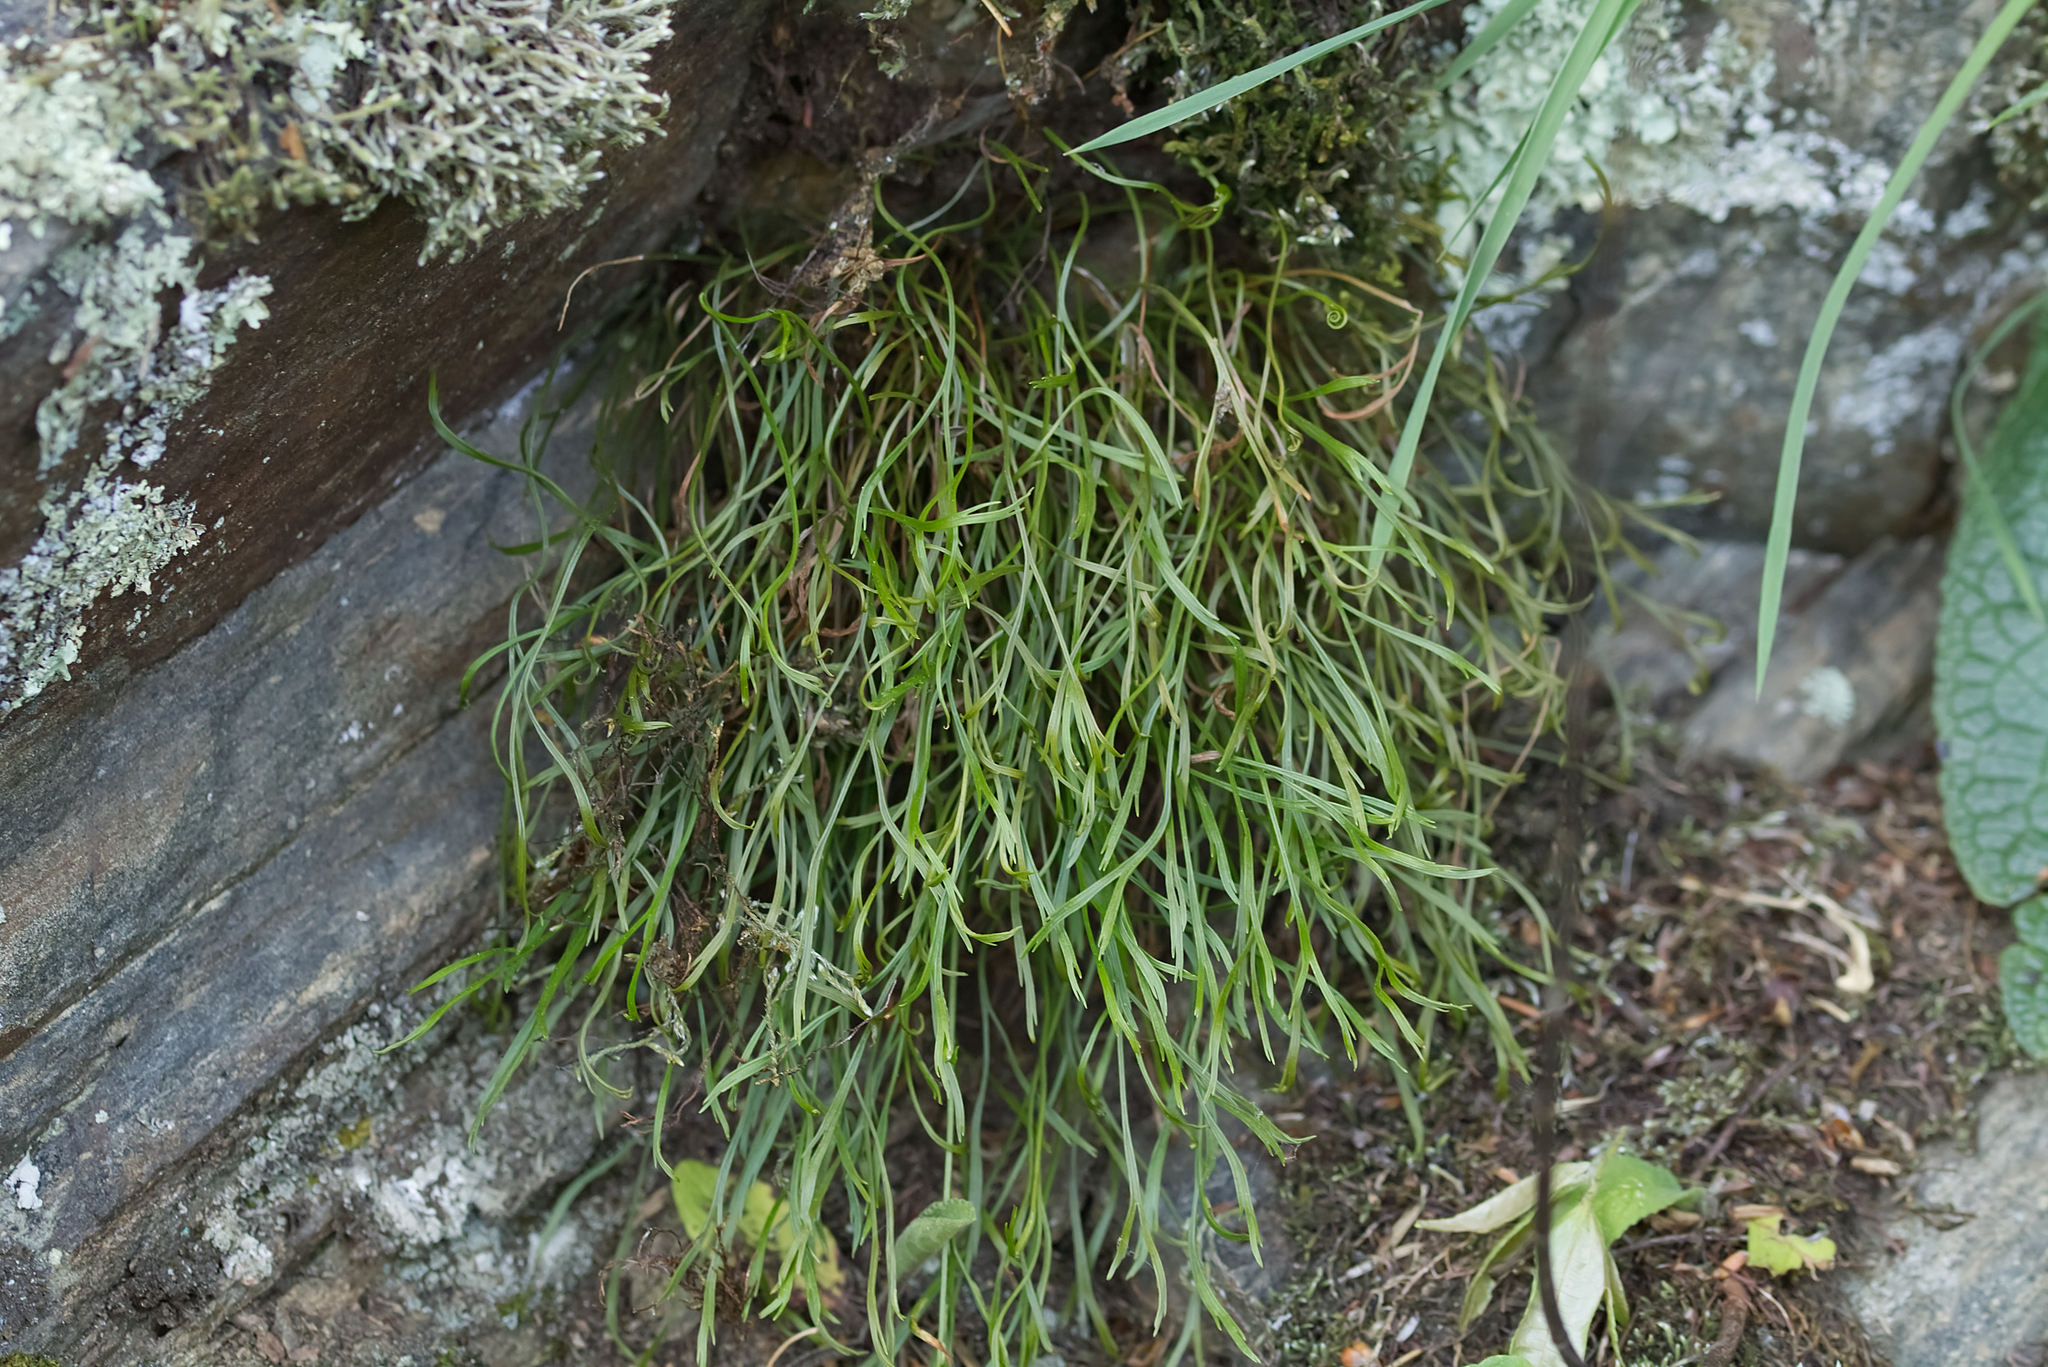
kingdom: Plantae
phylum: Tracheophyta
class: Polypodiopsida
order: Polypodiales
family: Aspleniaceae
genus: Asplenium
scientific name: Asplenium septentrionale
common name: Forked spleenwort
